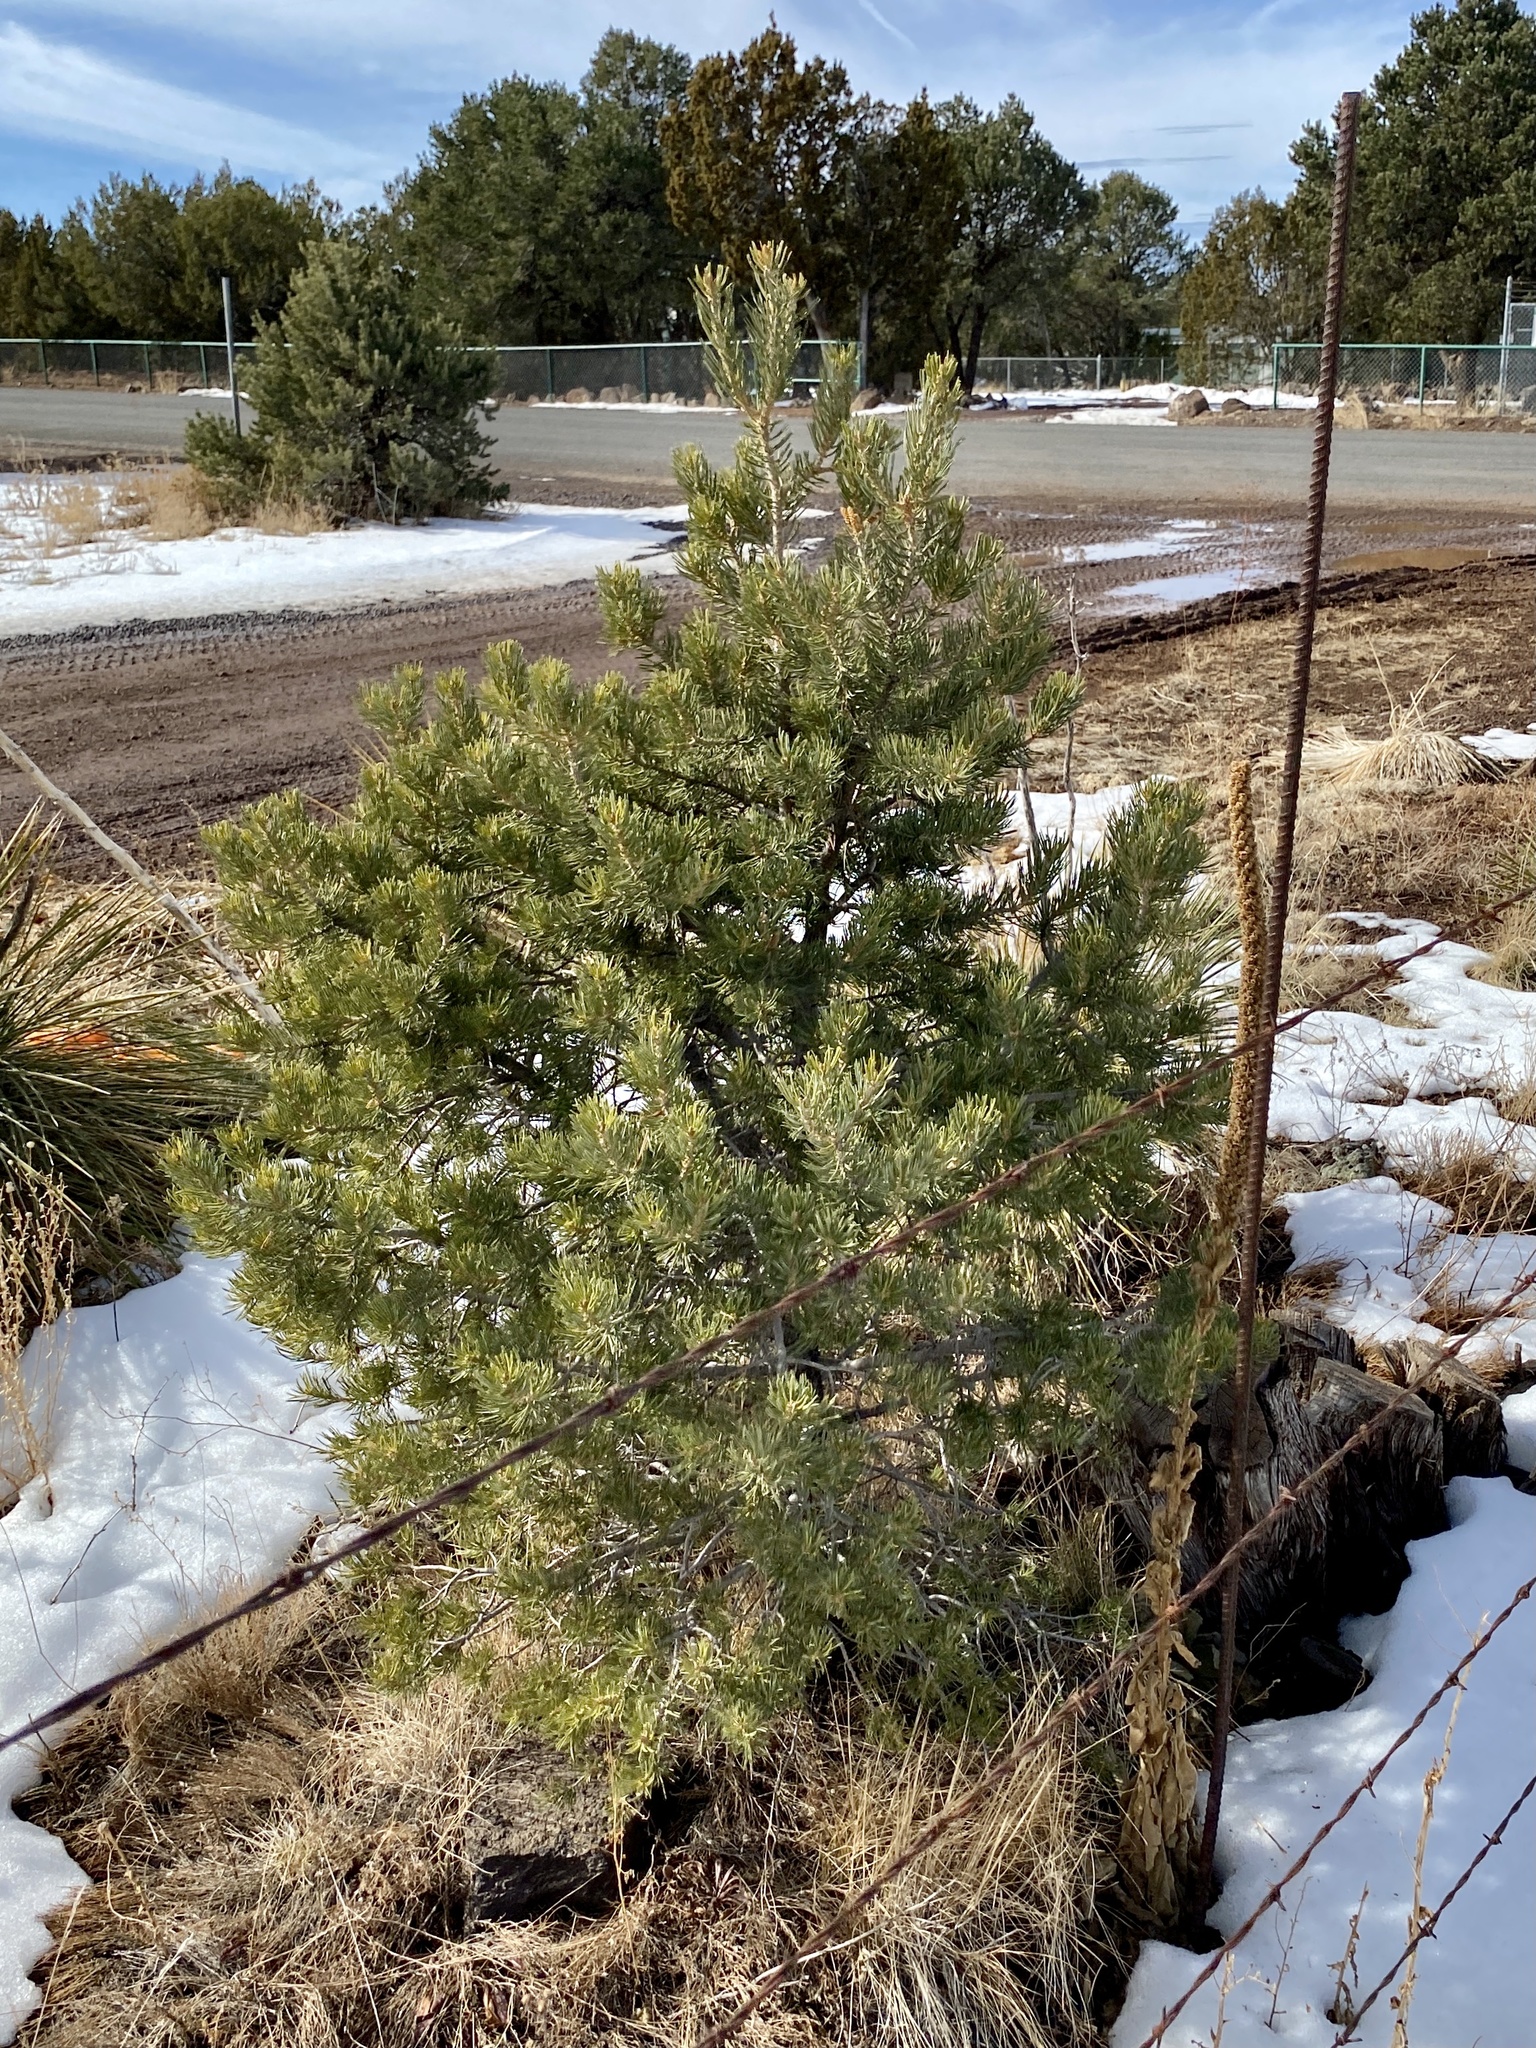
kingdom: Plantae
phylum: Tracheophyta
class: Pinopsida
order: Pinales
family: Pinaceae
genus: Pinus
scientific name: Pinus edulis
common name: Colorado pinyon
